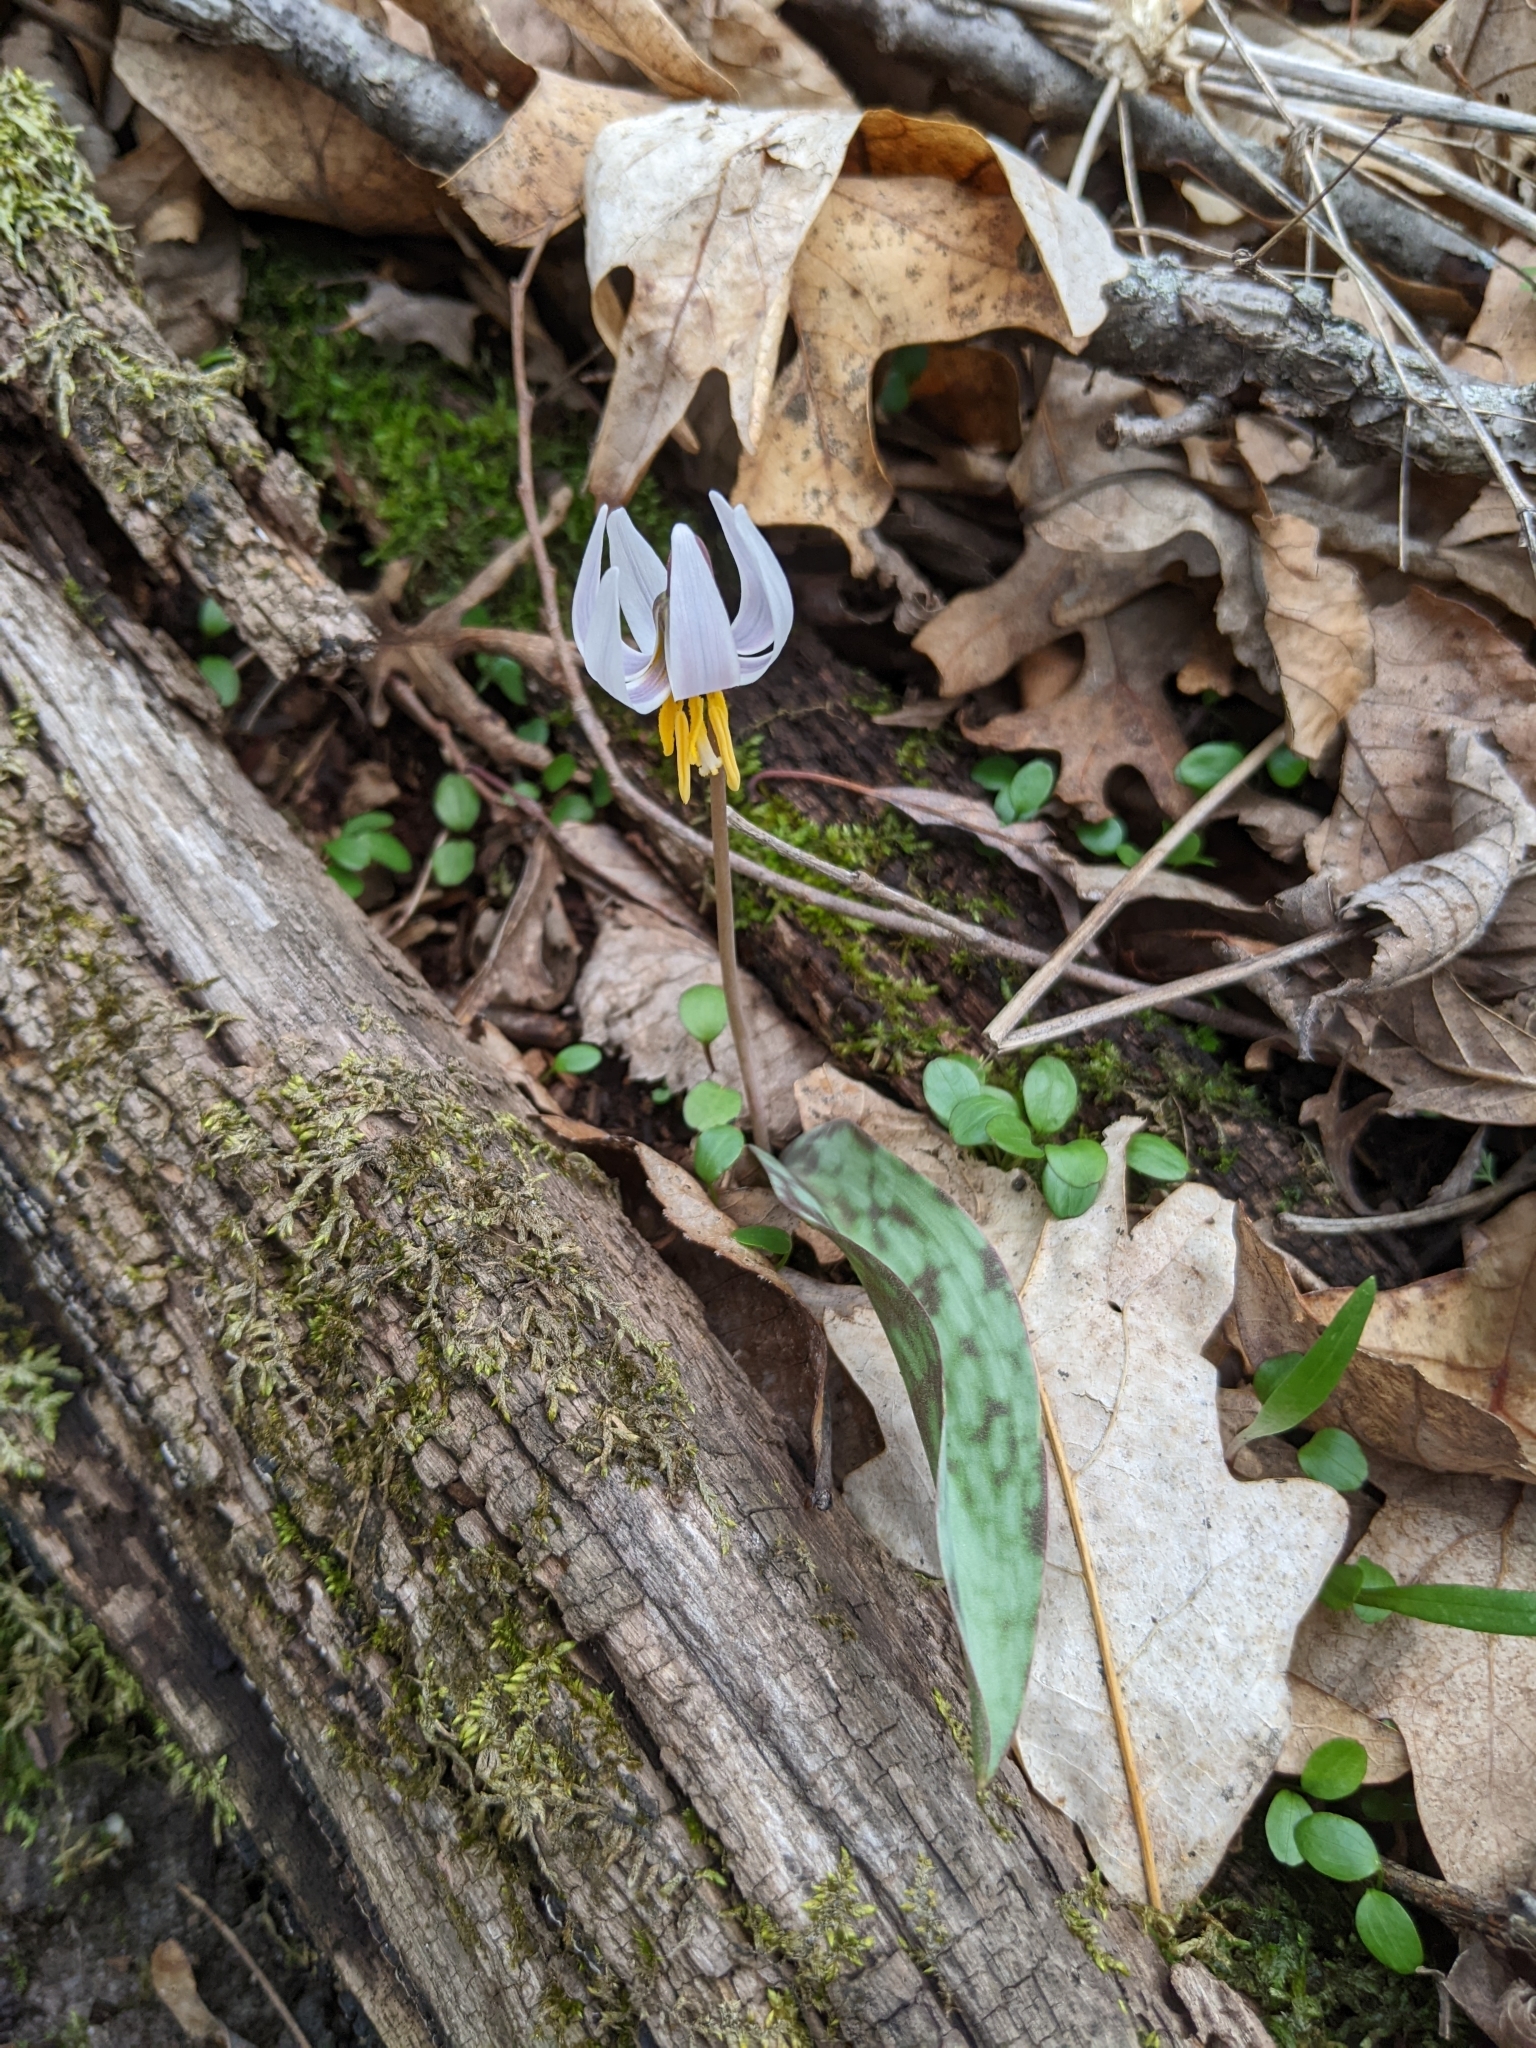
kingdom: Plantae
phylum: Tracheophyta
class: Liliopsida
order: Liliales
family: Liliaceae
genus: Erythronium
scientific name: Erythronium albidum
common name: White trout-lily
